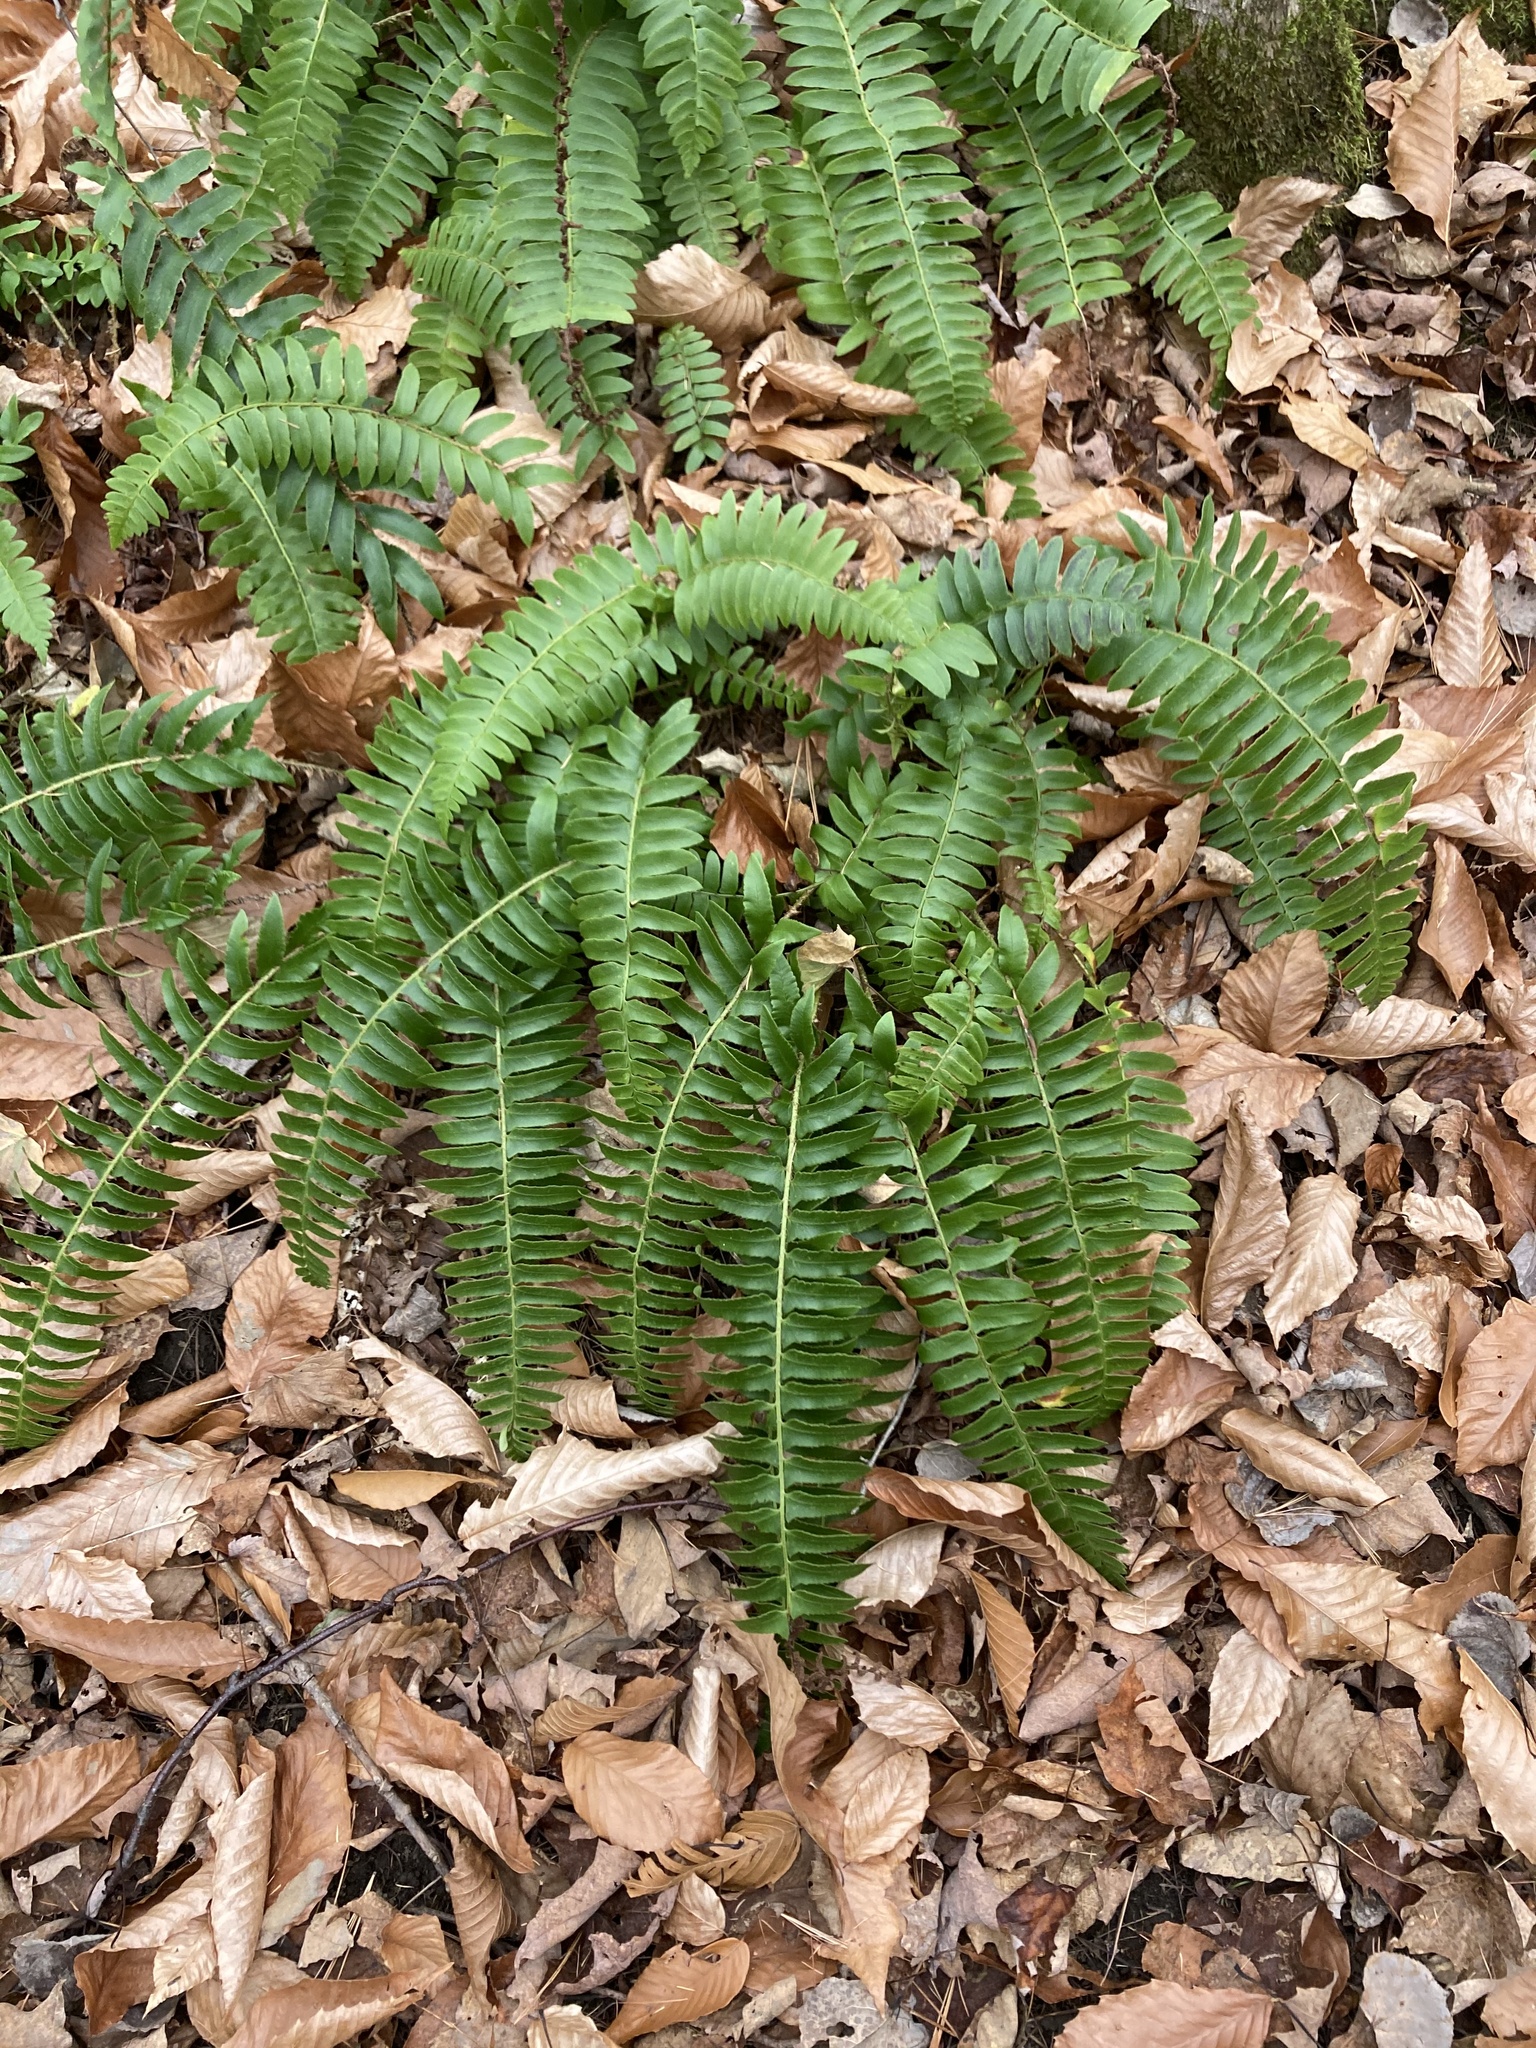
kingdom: Plantae
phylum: Tracheophyta
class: Polypodiopsida
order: Polypodiales
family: Dryopteridaceae
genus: Polystichum
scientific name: Polystichum acrostichoides
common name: Christmas fern
